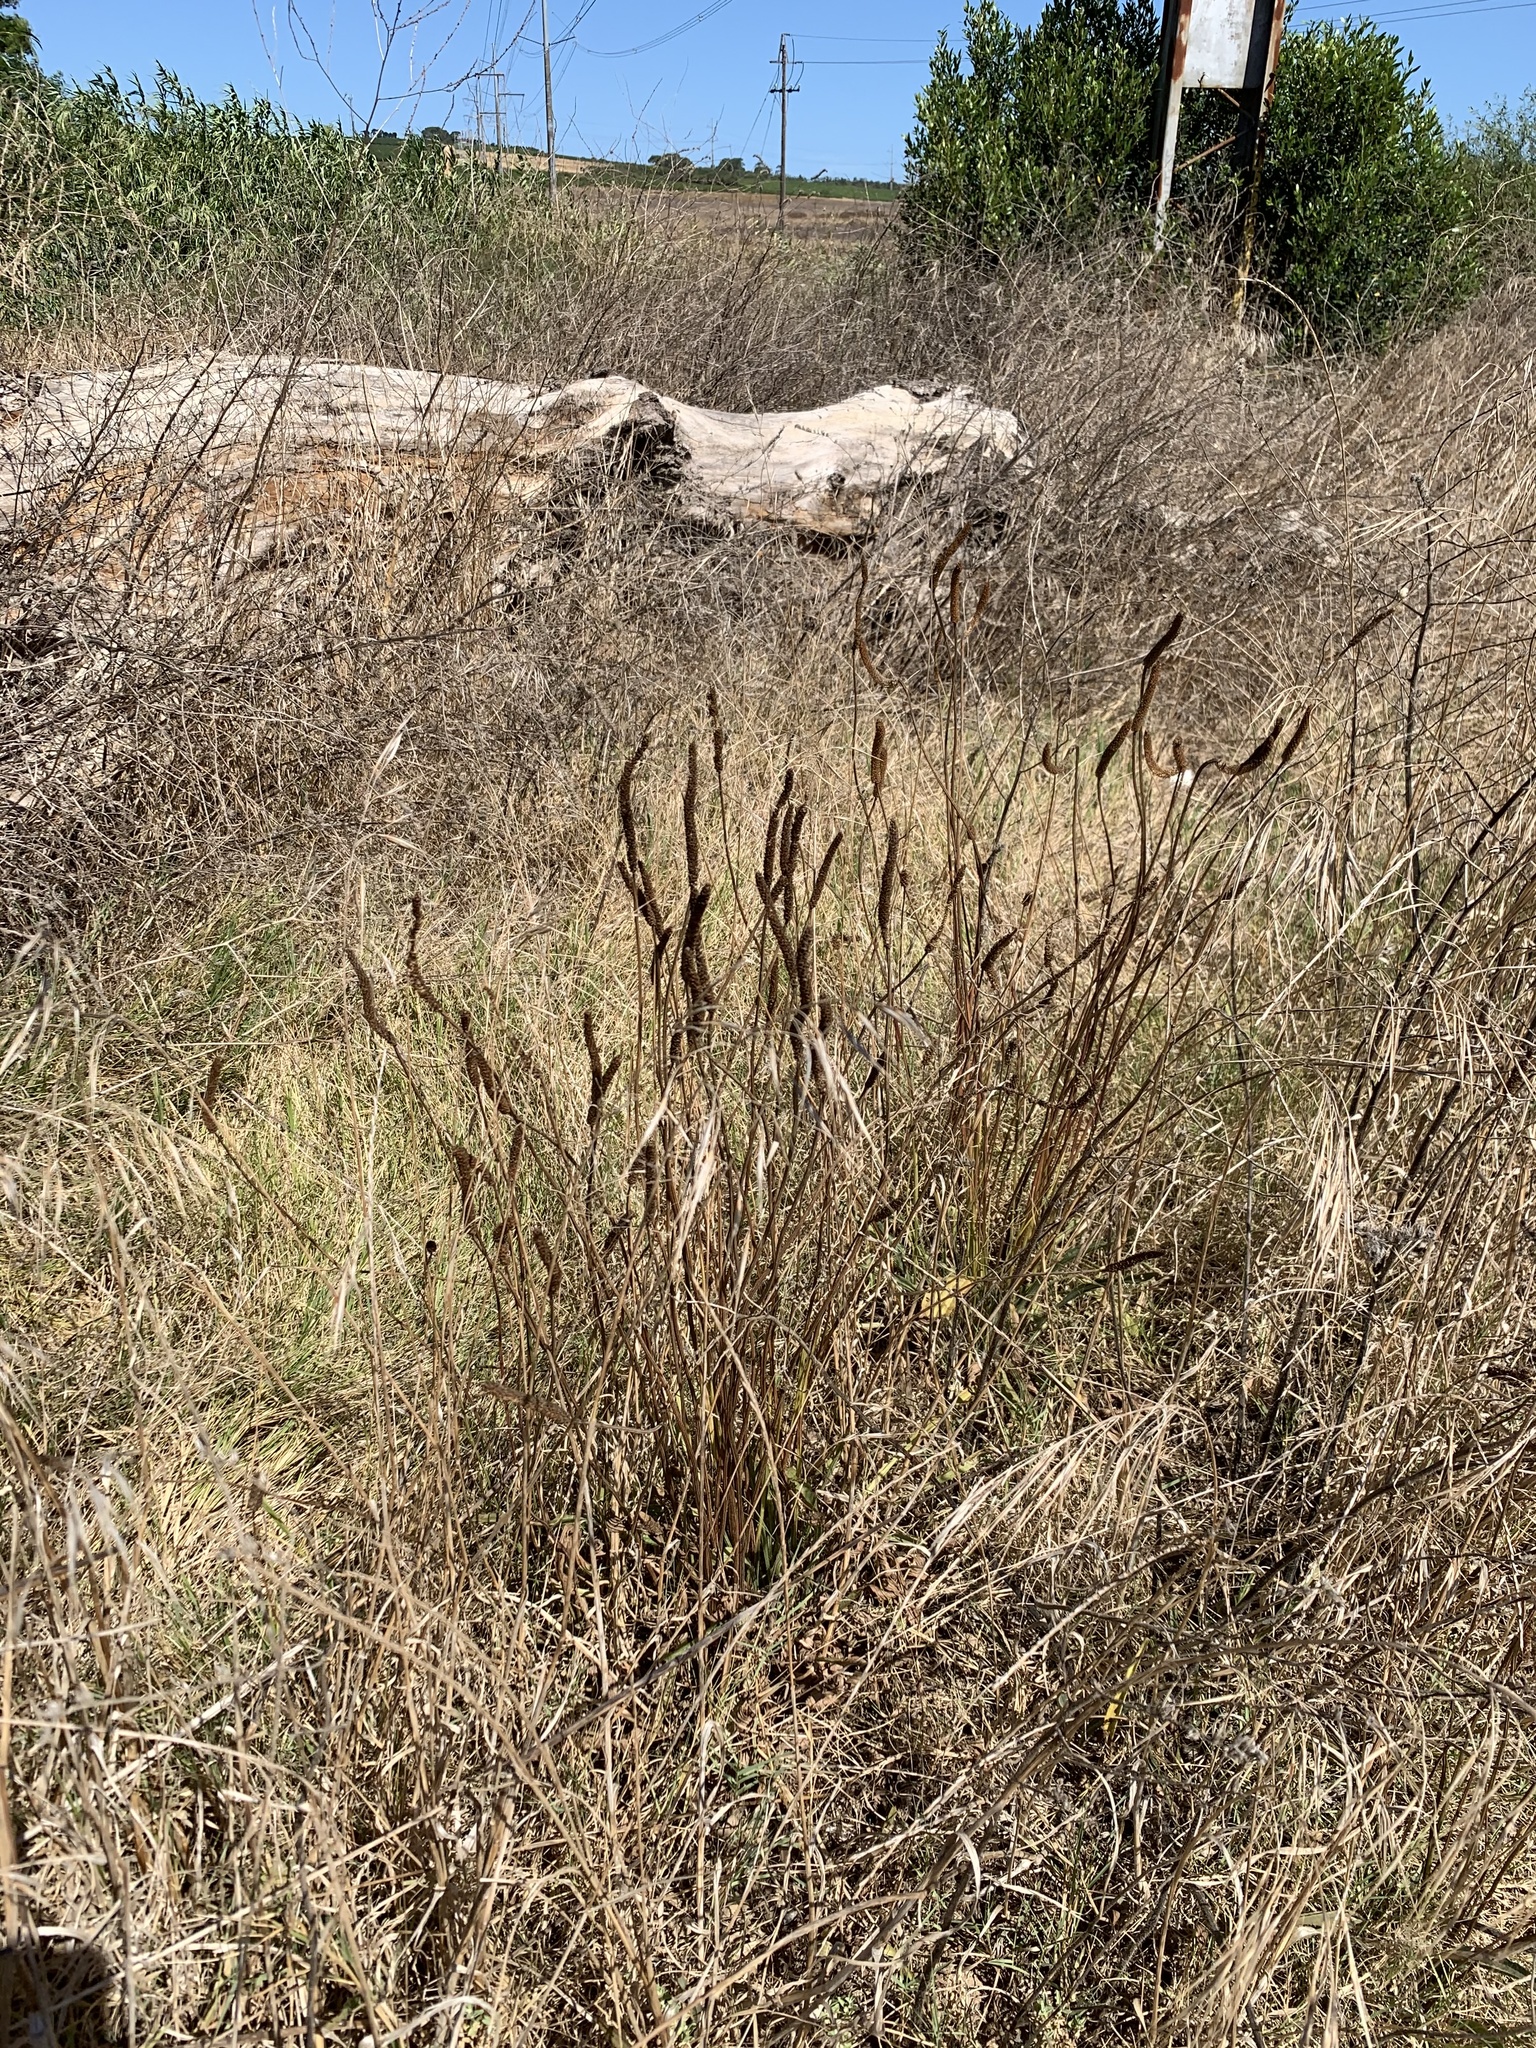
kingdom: Plantae
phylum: Tracheophyta
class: Magnoliopsida
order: Lamiales
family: Plantaginaceae
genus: Plantago
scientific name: Plantago lanceolata
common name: Ribwort plantain
